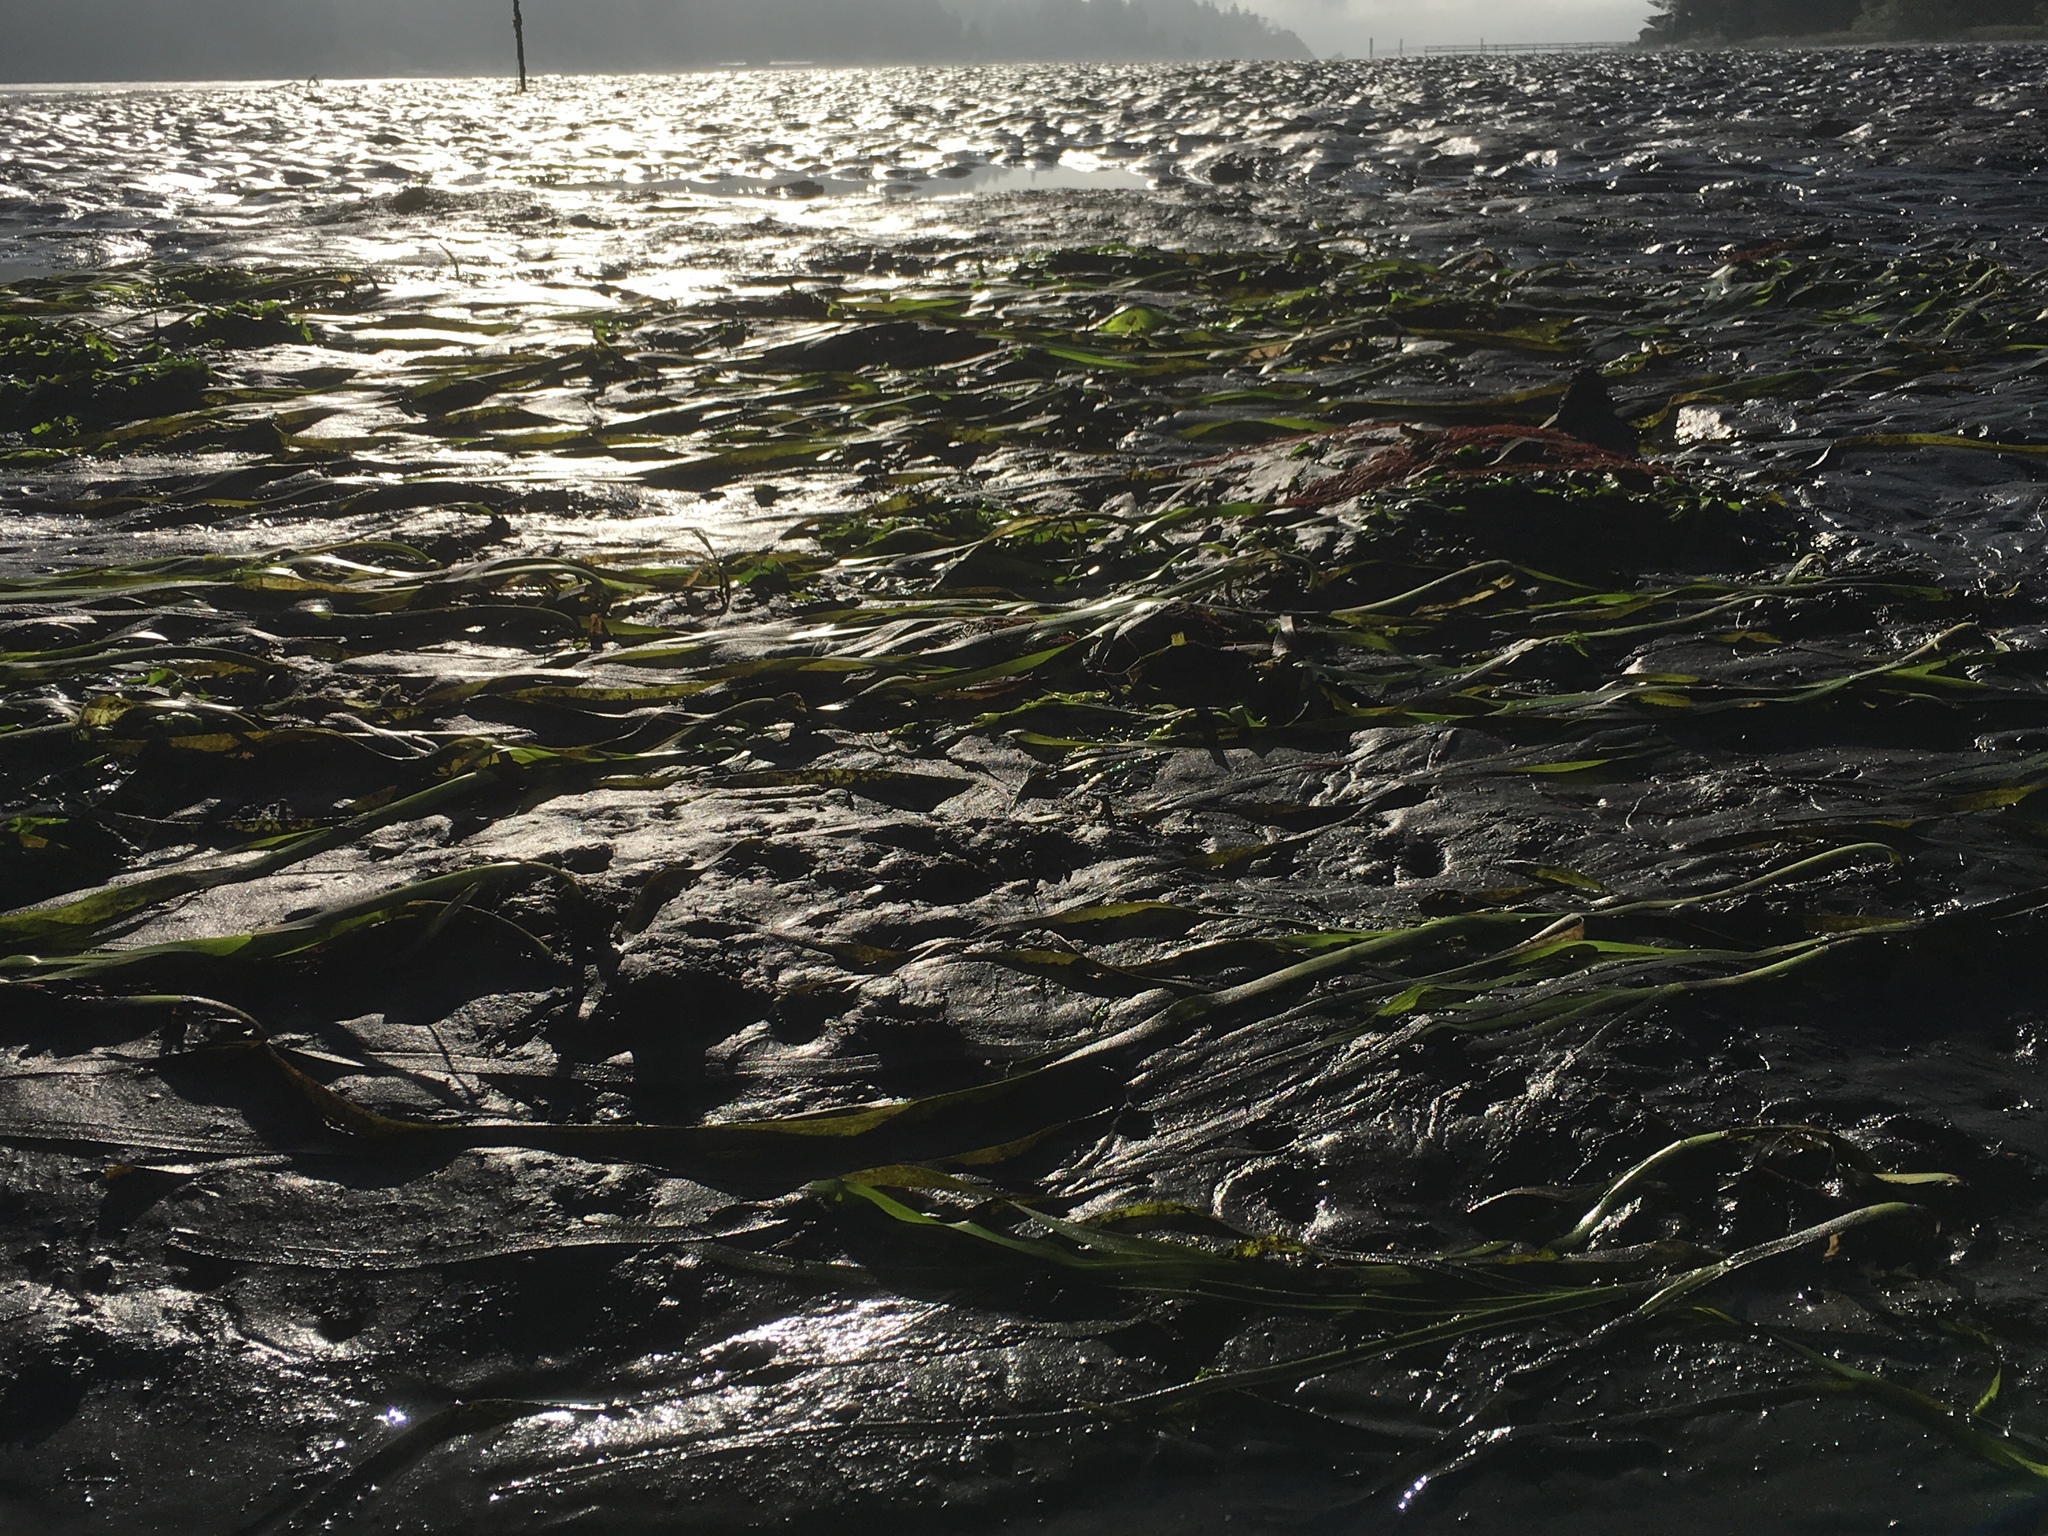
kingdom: Plantae
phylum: Tracheophyta
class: Liliopsida
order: Alismatales
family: Zosteraceae
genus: Zostera
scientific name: Zostera marina
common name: Eelgrass
